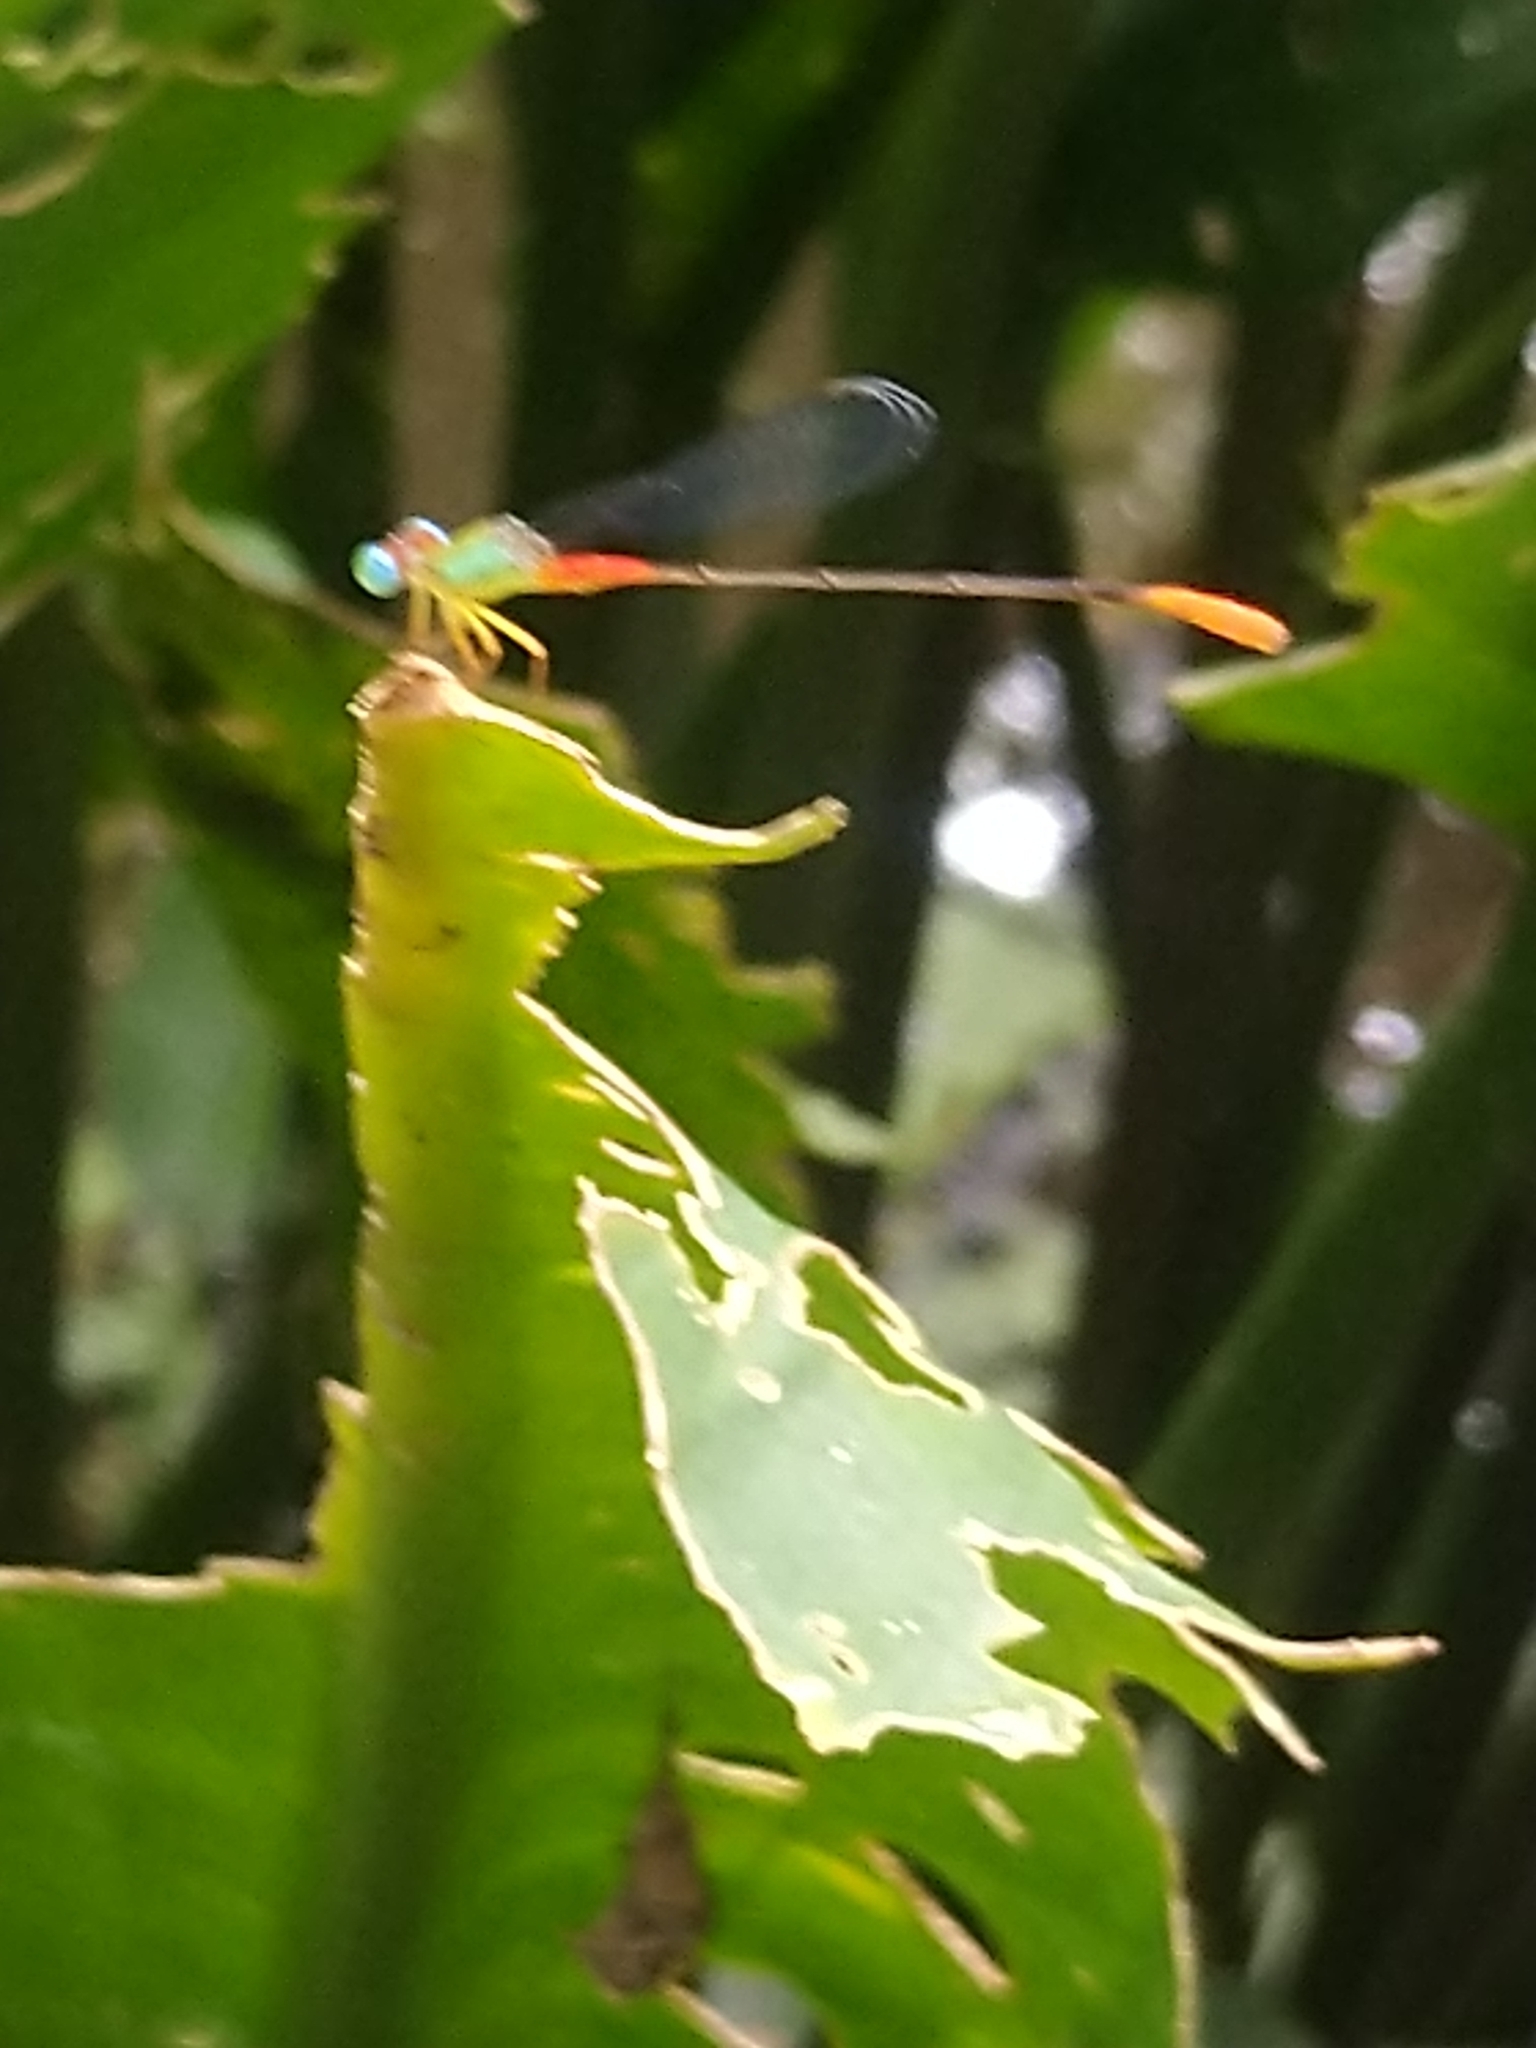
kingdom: Animalia
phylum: Arthropoda
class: Insecta
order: Odonata
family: Coenagrionidae
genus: Ceriagrion
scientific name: Ceriagrion cerinorubellum
